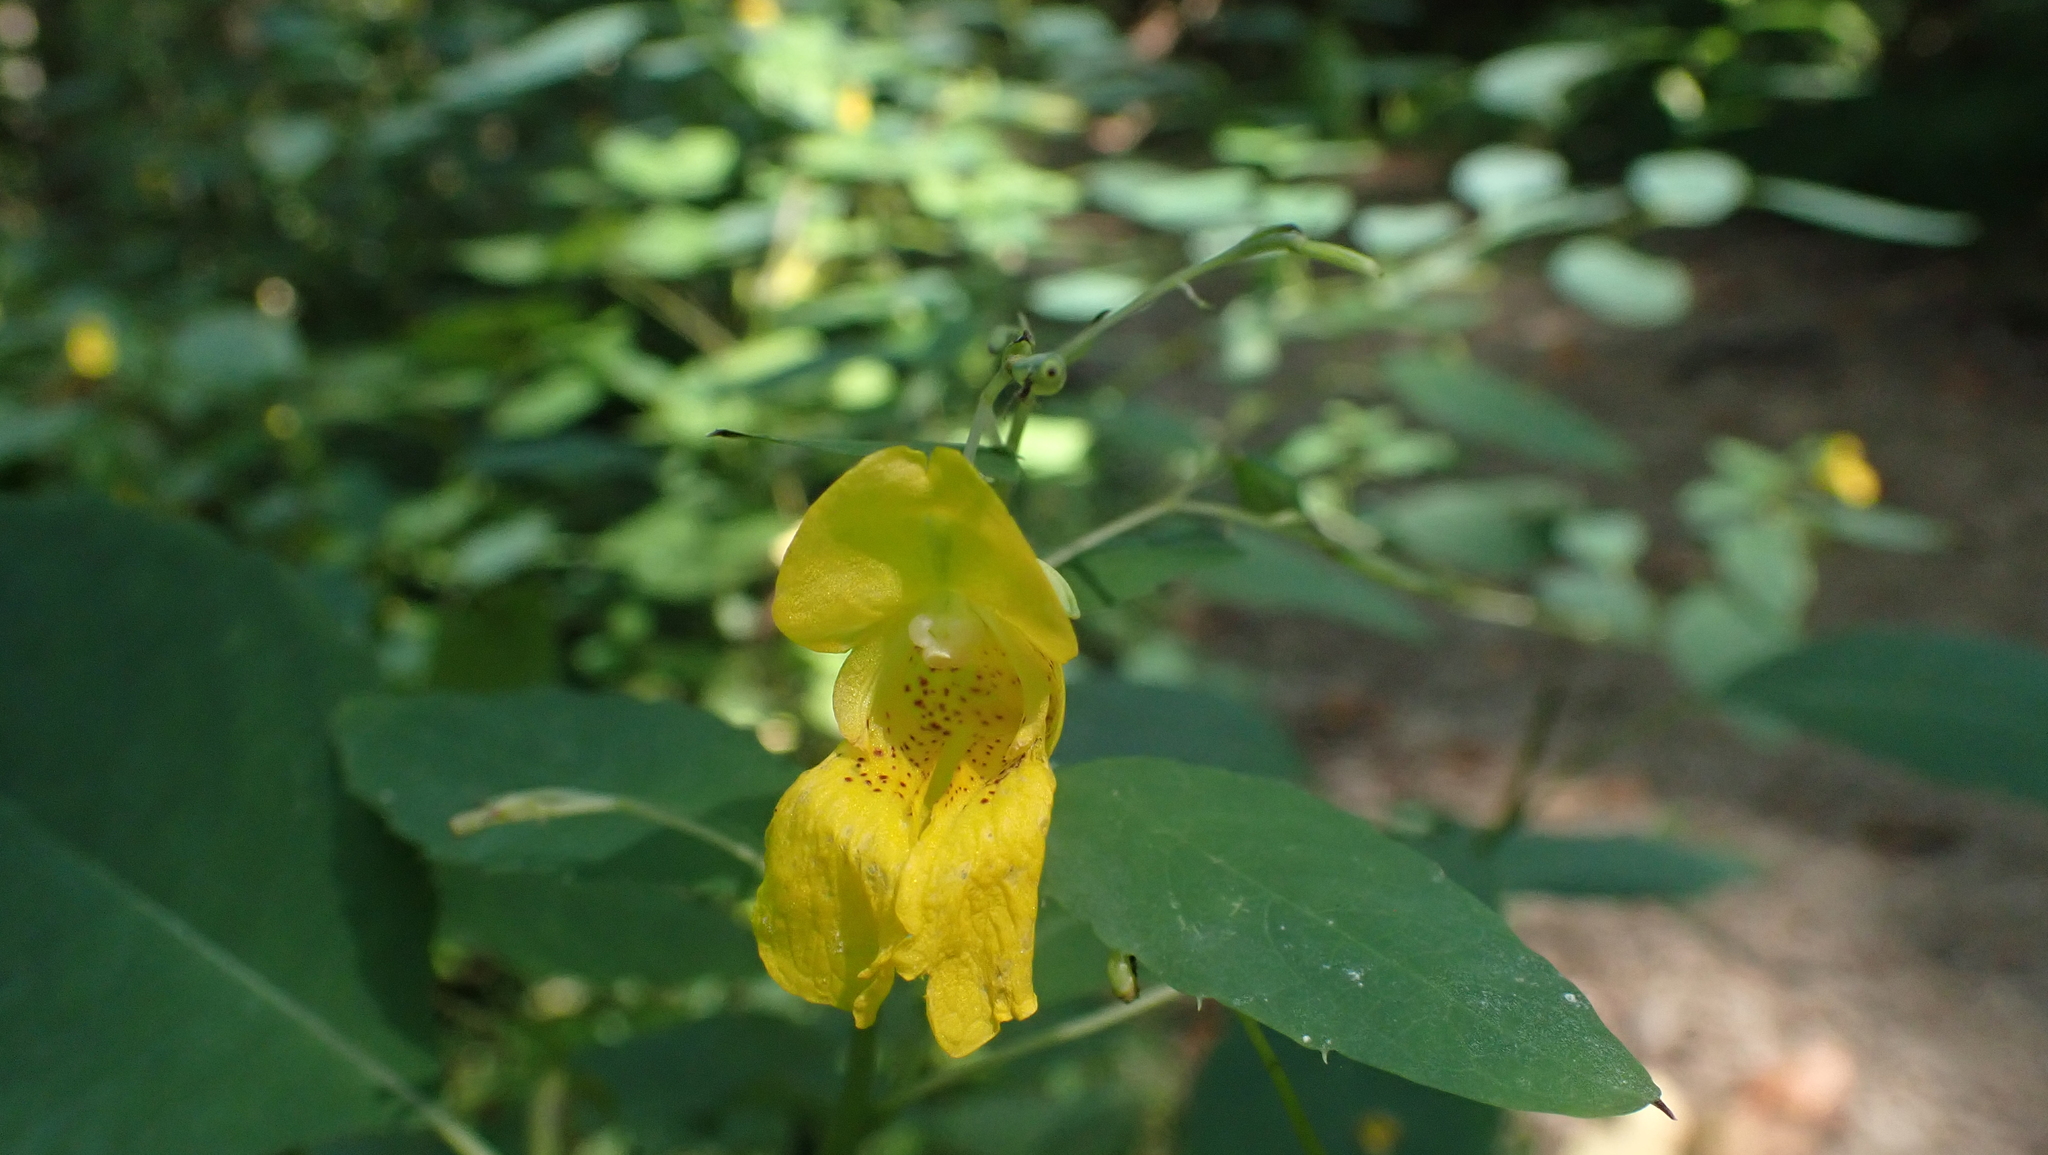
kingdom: Plantae
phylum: Tracheophyta
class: Magnoliopsida
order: Ericales
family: Balsaminaceae
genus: Impatiens
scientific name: Impatiens pallida
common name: Pale snapweed
